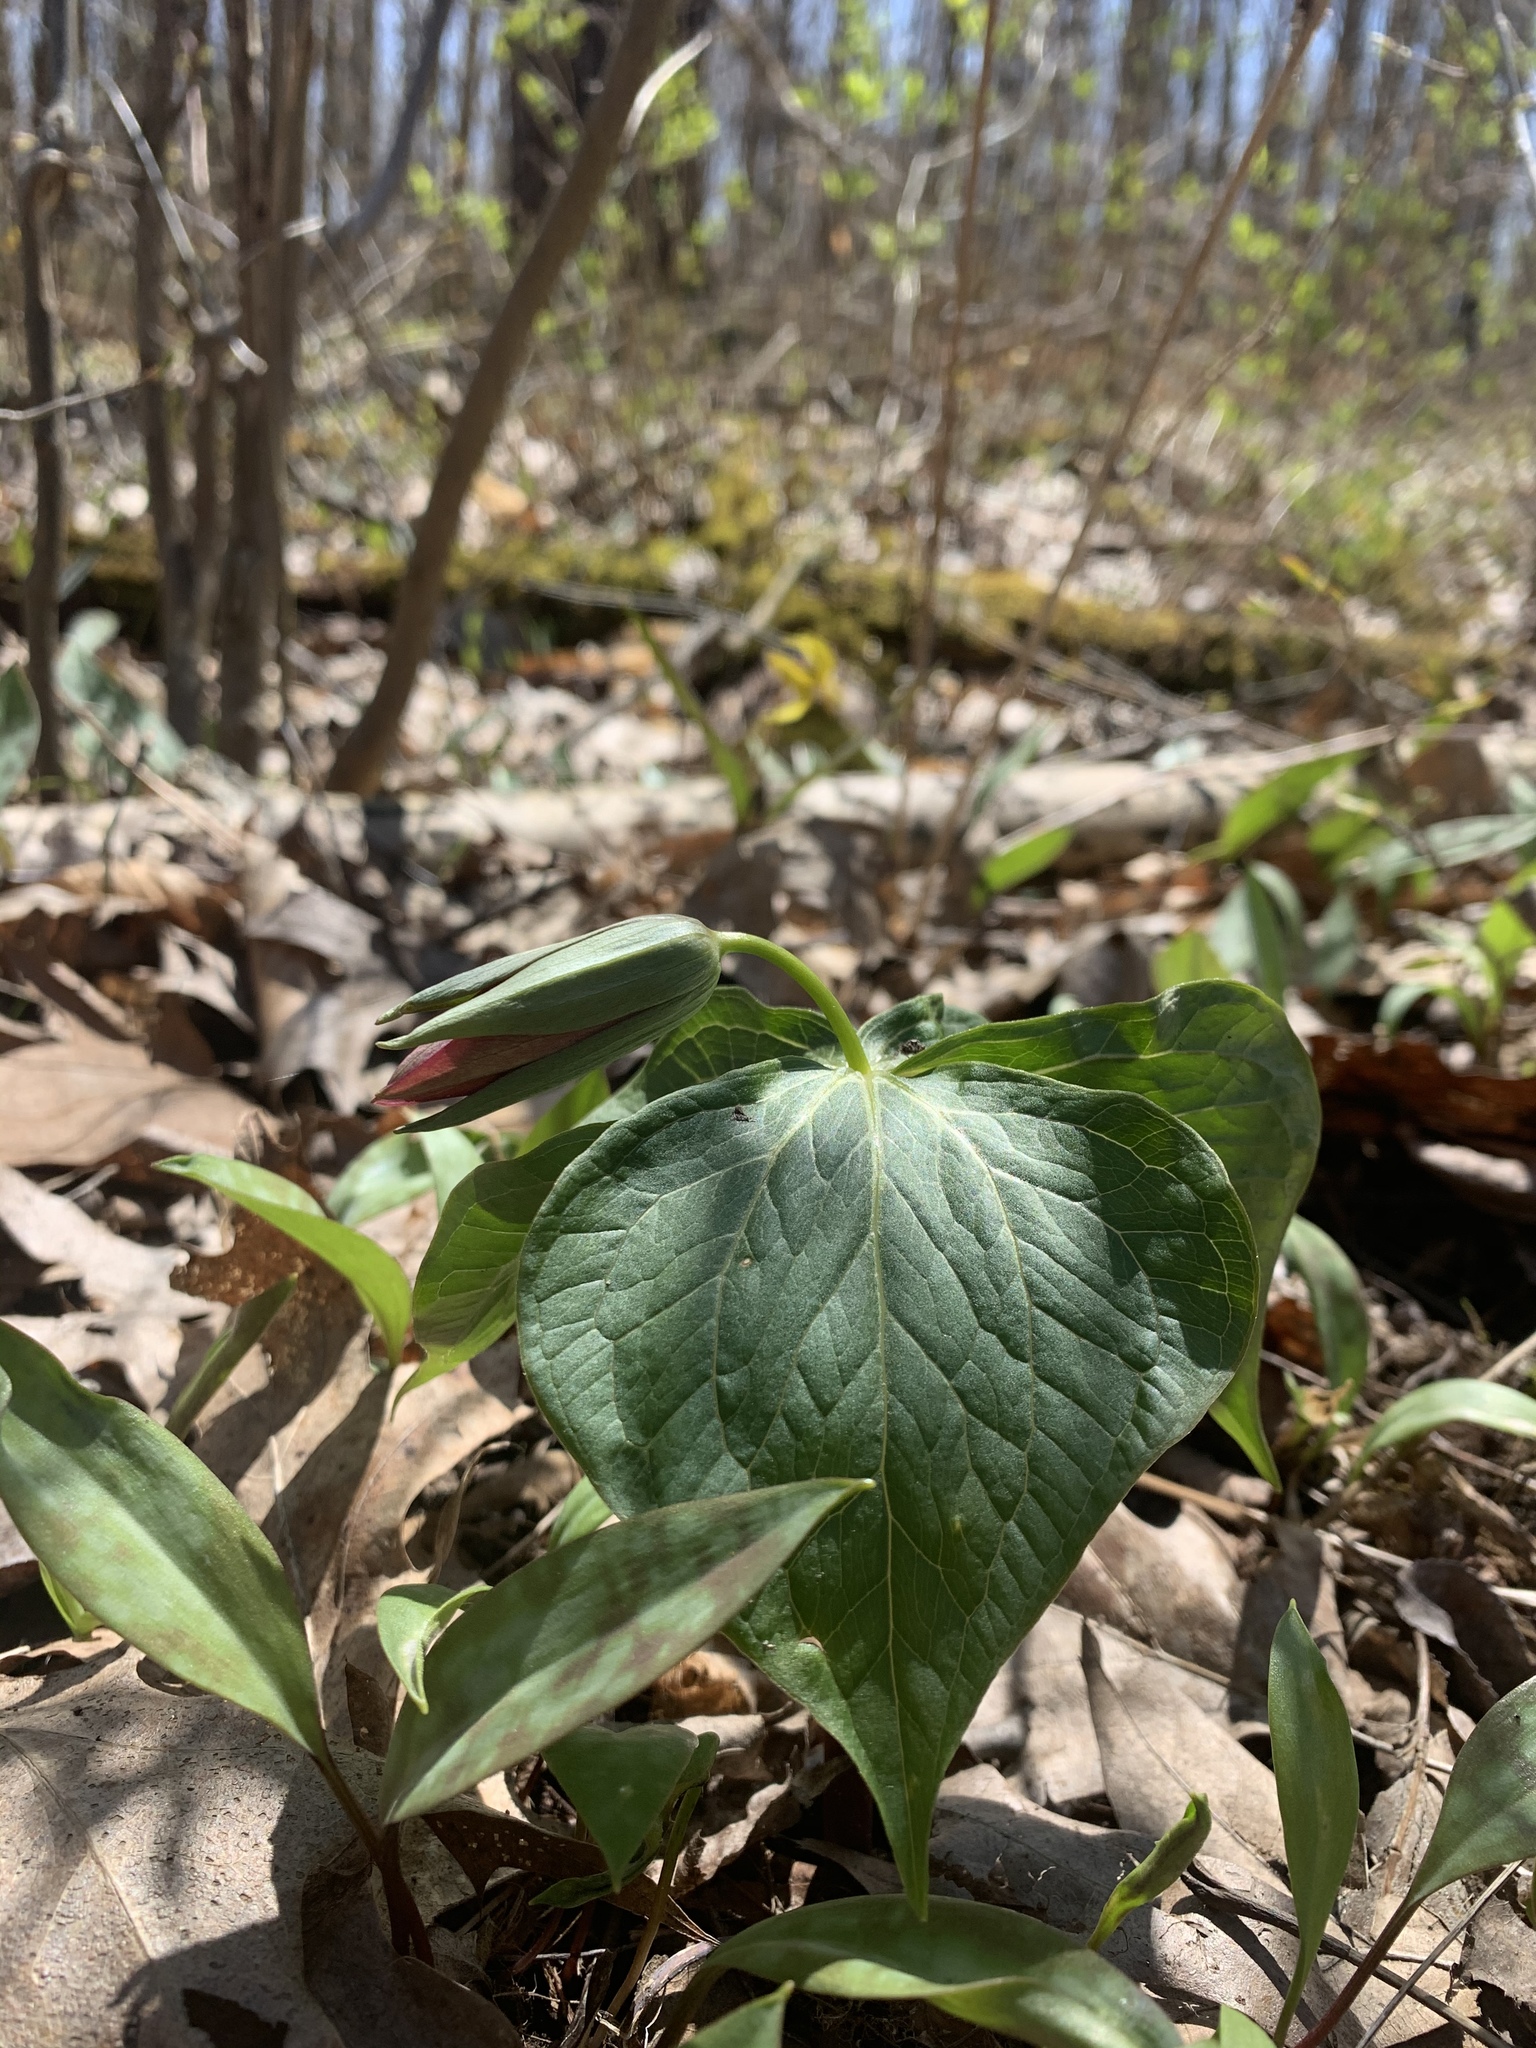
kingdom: Plantae
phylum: Tracheophyta
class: Liliopsida
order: Liliales
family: Melanthiaceae
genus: Trillium
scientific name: Trillium erectum
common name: Purple trillium
